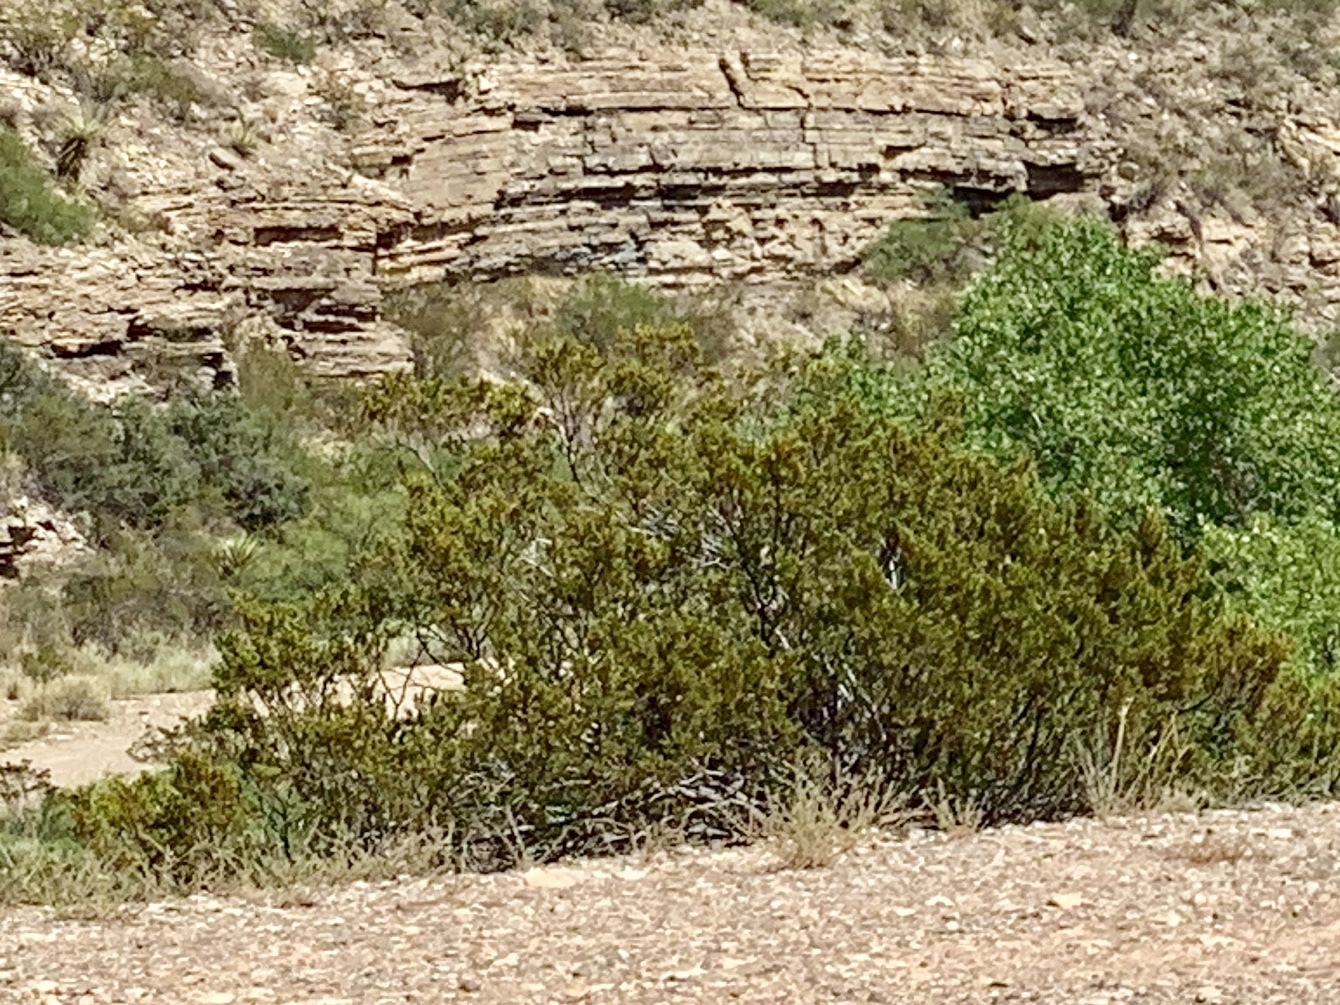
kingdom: Plantae
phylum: Tracheophyta
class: Magnoliopsida
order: Zygophyllales
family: Zygophyllaceae
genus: Larrea
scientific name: Larrea tridentata
